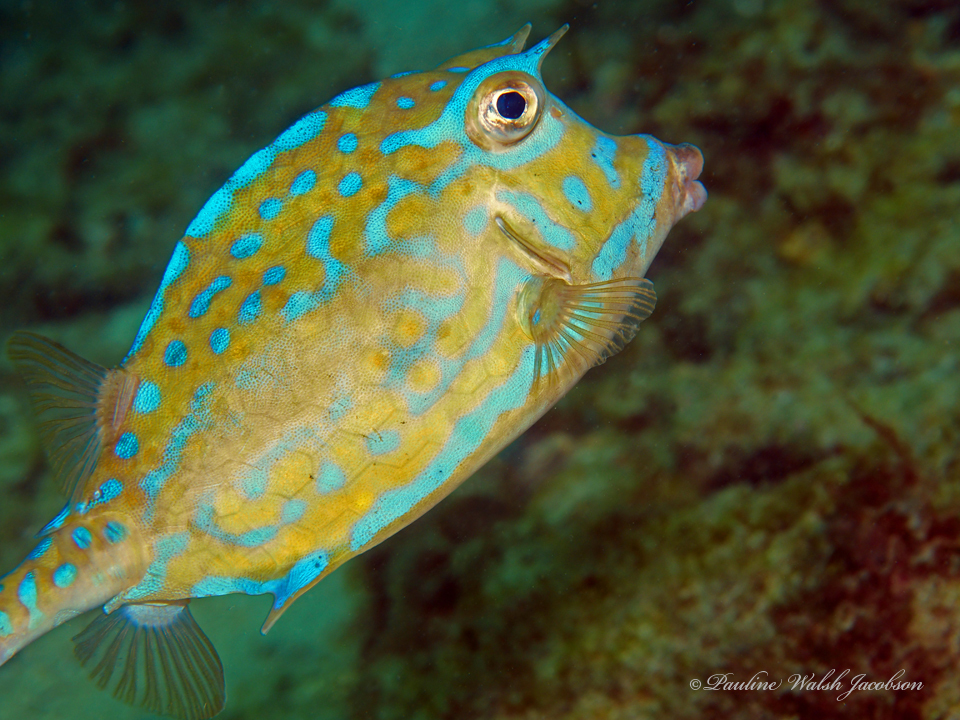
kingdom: Animalia
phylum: Chordata
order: Tetraodontiformes
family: Ostraciidae
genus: Acanthostracion
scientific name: Acanthostracion quadricornis
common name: Scrawled cowfish
